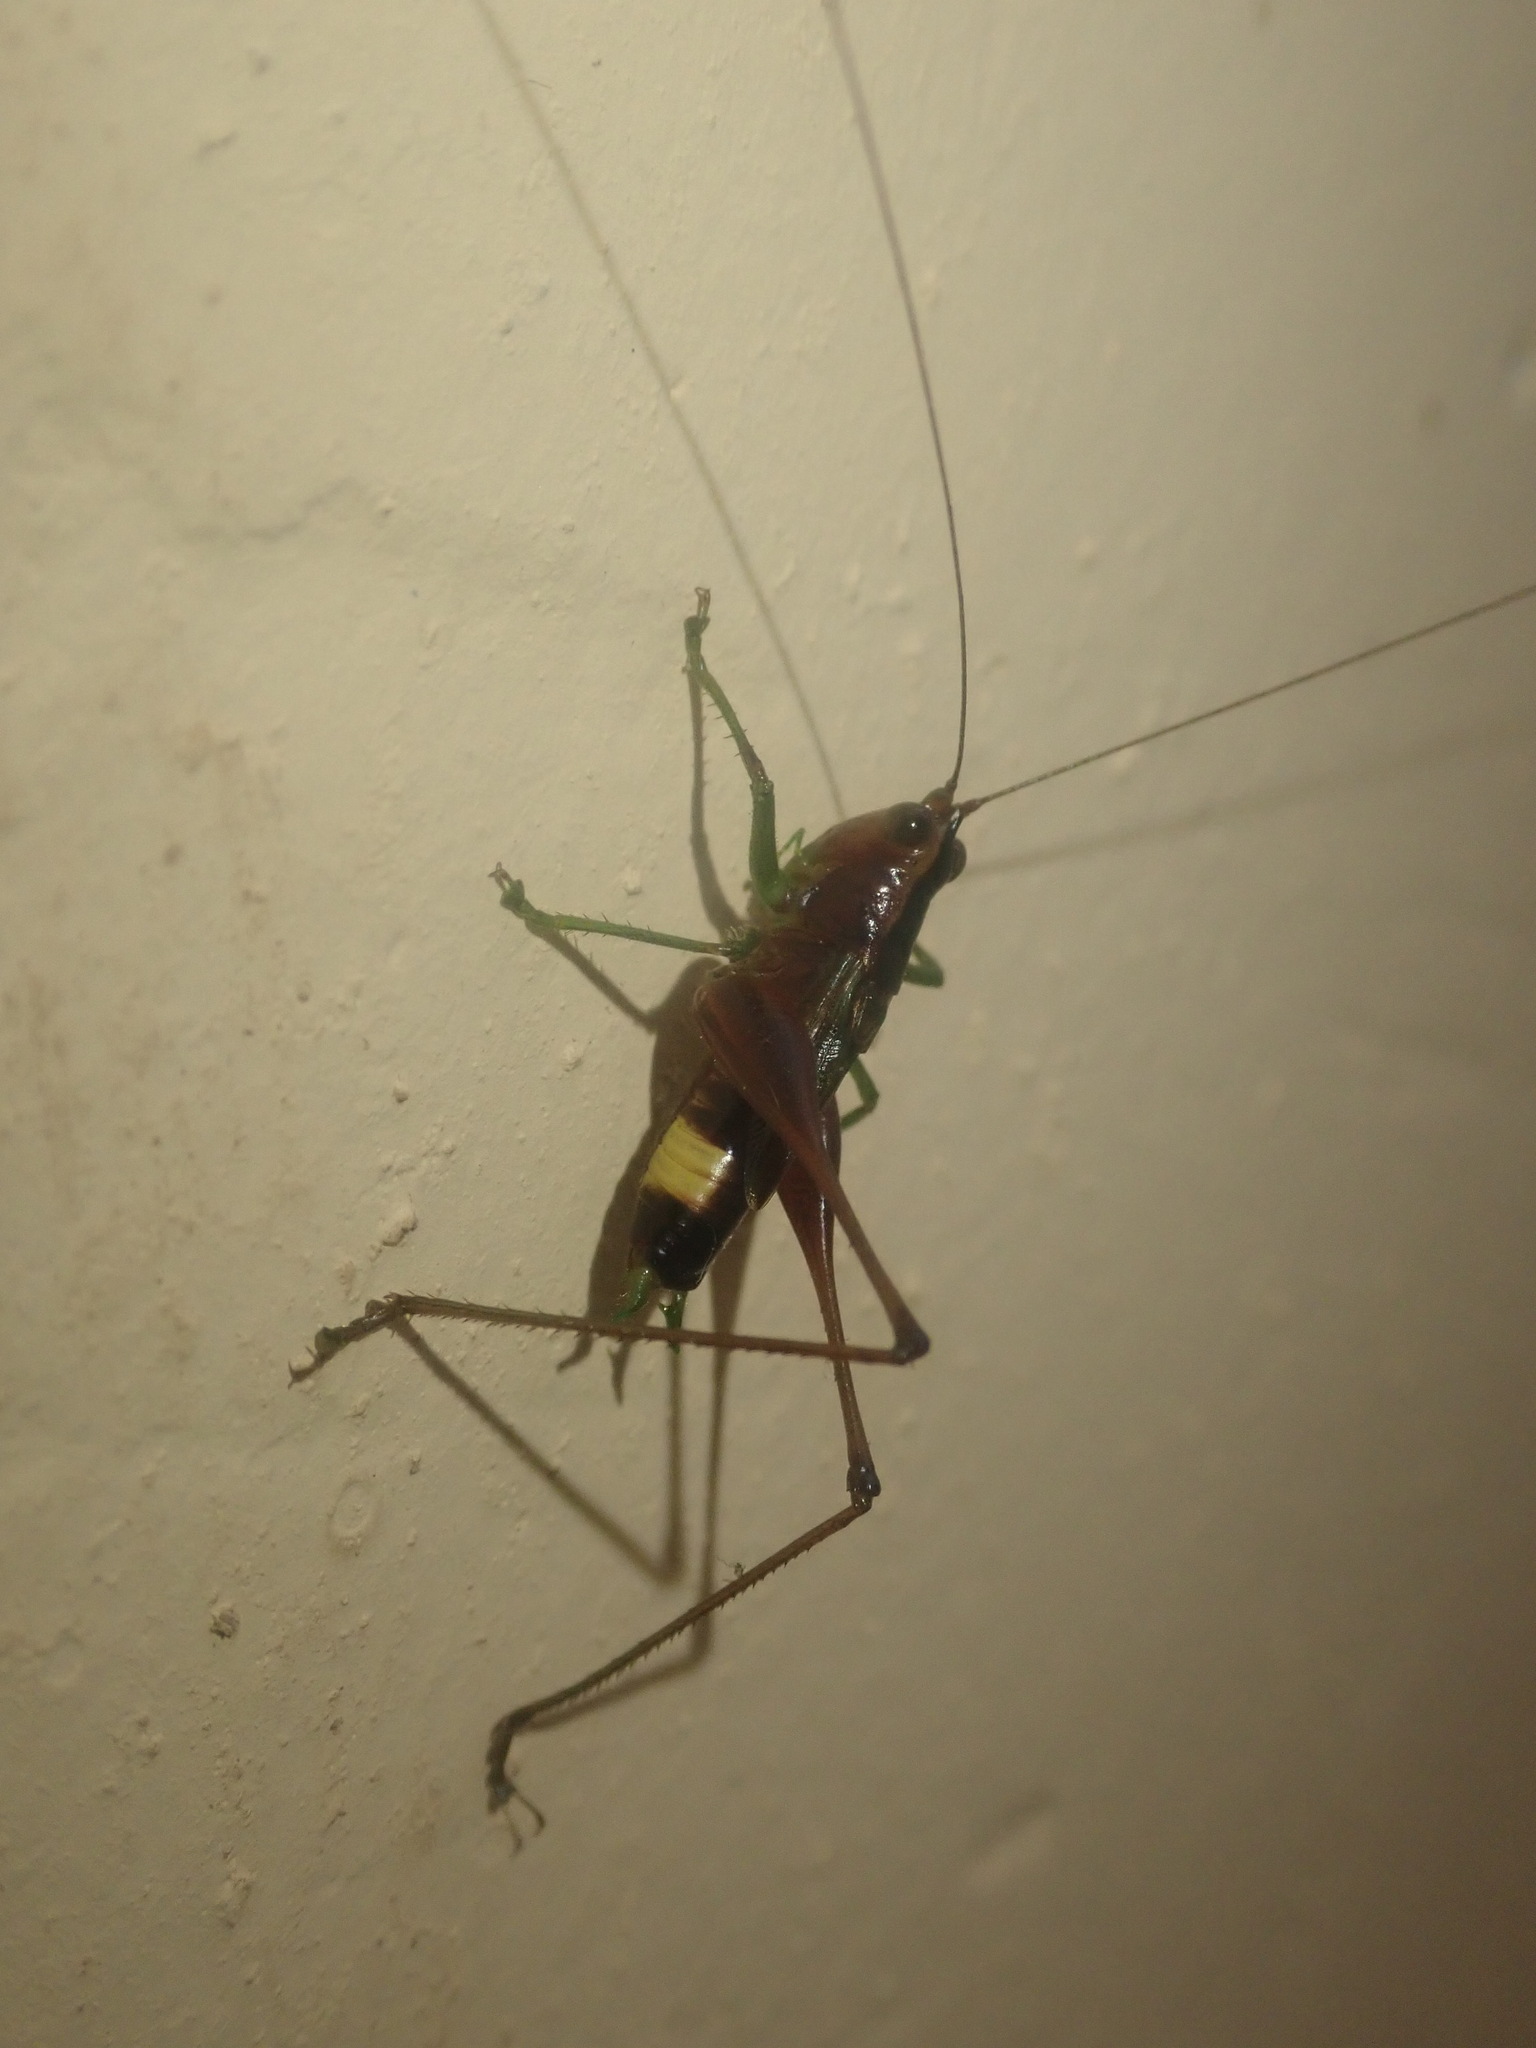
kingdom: Animalia
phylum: Arthropoda
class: Insecta
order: Orthoptera
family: Tettigoniidae
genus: Conocephalus
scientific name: Conocephalus versicolor
